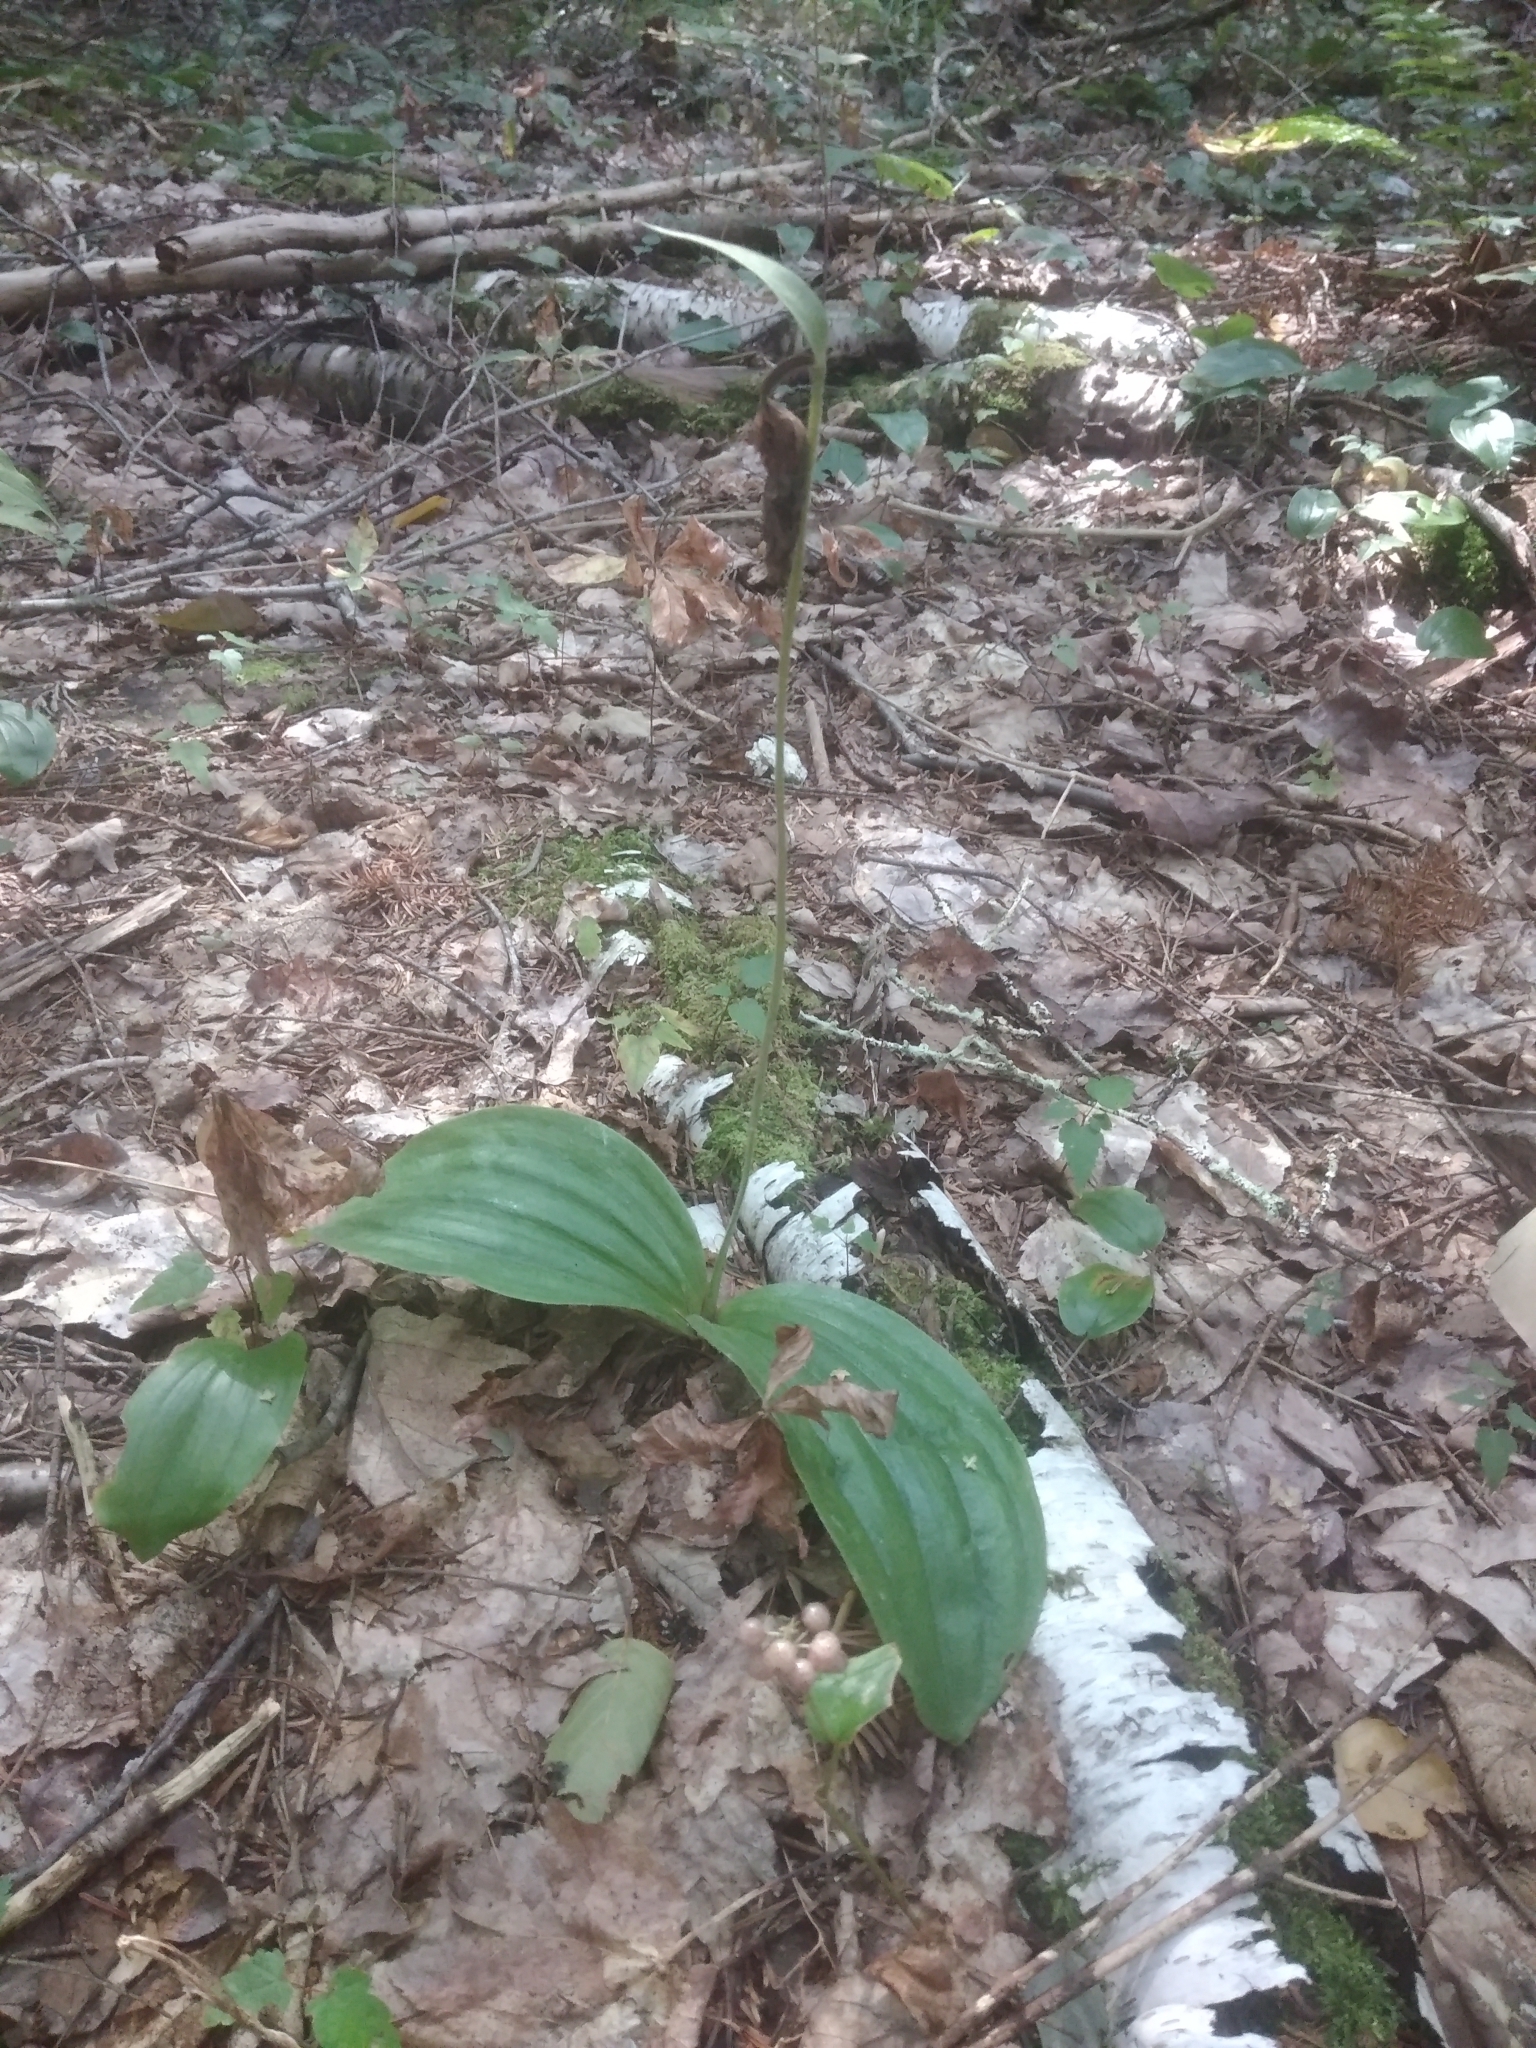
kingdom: Plantae
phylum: Tracheophyta
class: Liliopsida
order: Asparagales
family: Orchidaceae
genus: Cypripedium
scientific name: Cypripedium acaule
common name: Pink lady's-slipper
